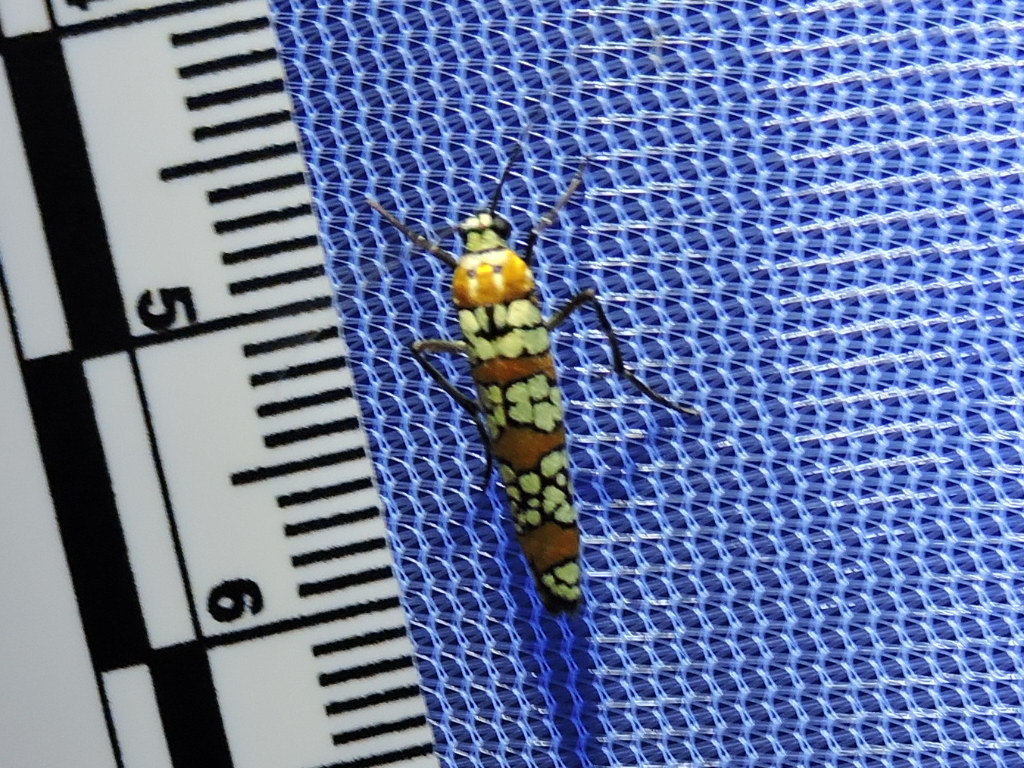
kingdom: Animalia
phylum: Arthropoda
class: Insecta
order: Lepidoptera
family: Attevidae
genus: Atteva
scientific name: Atteva punctella
